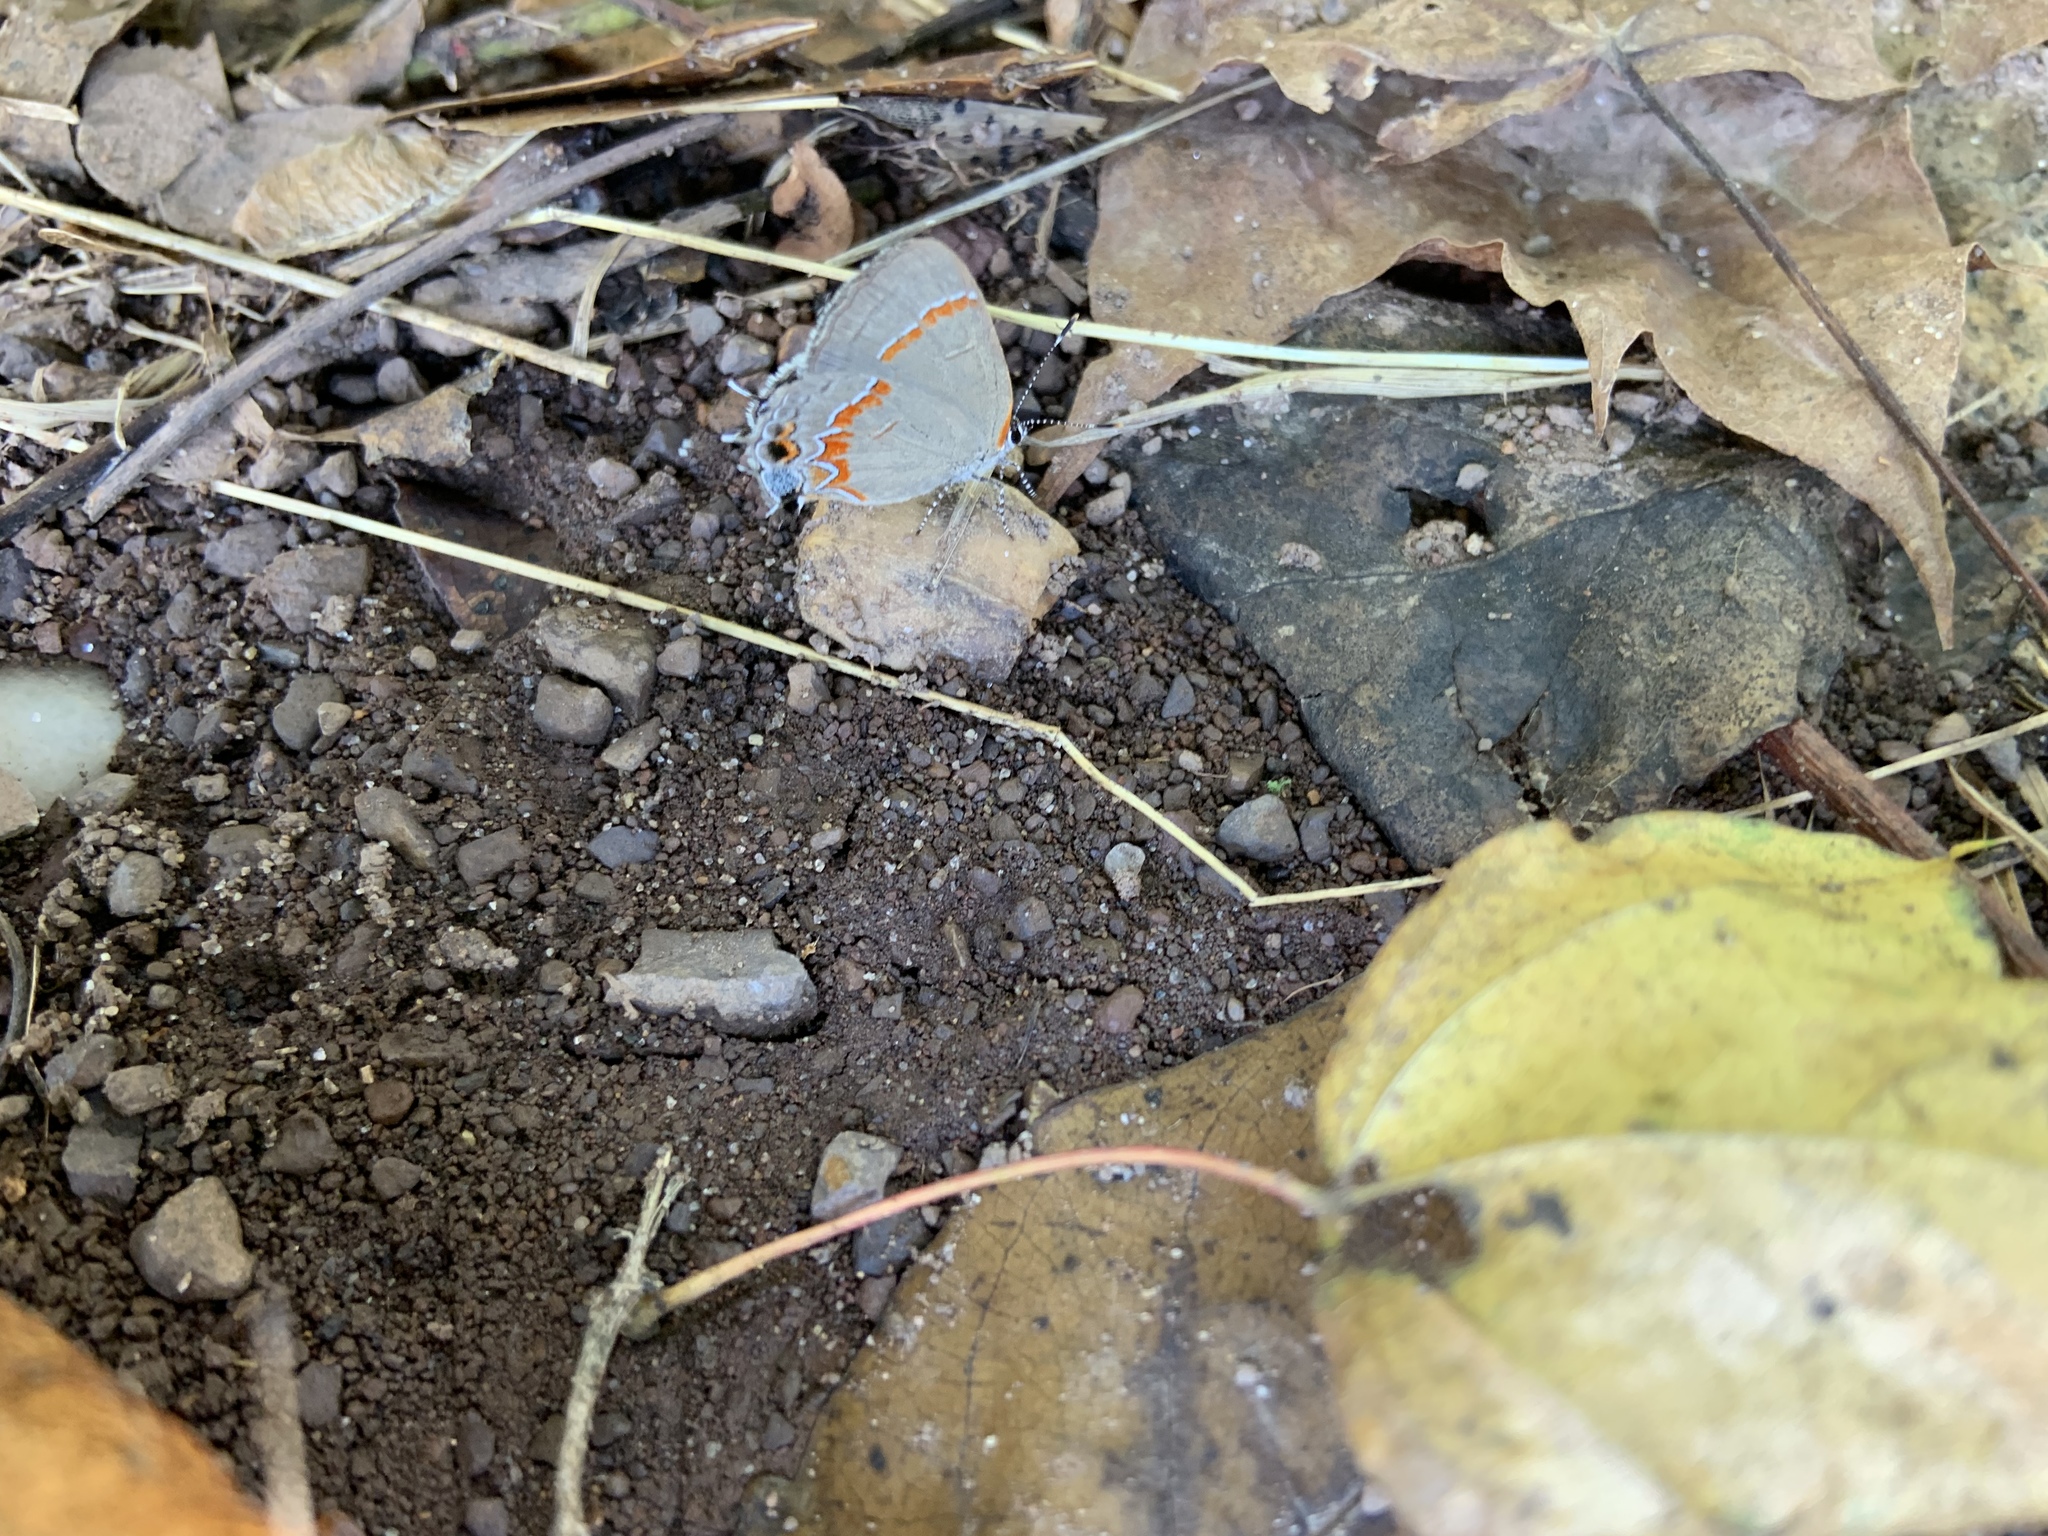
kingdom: Animalia
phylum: Arthropoda
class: Insecta
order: Lepidoptera
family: Lycaenidae
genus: Calycopis
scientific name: Calycopis cecrops
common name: Red-banded hairstreak
